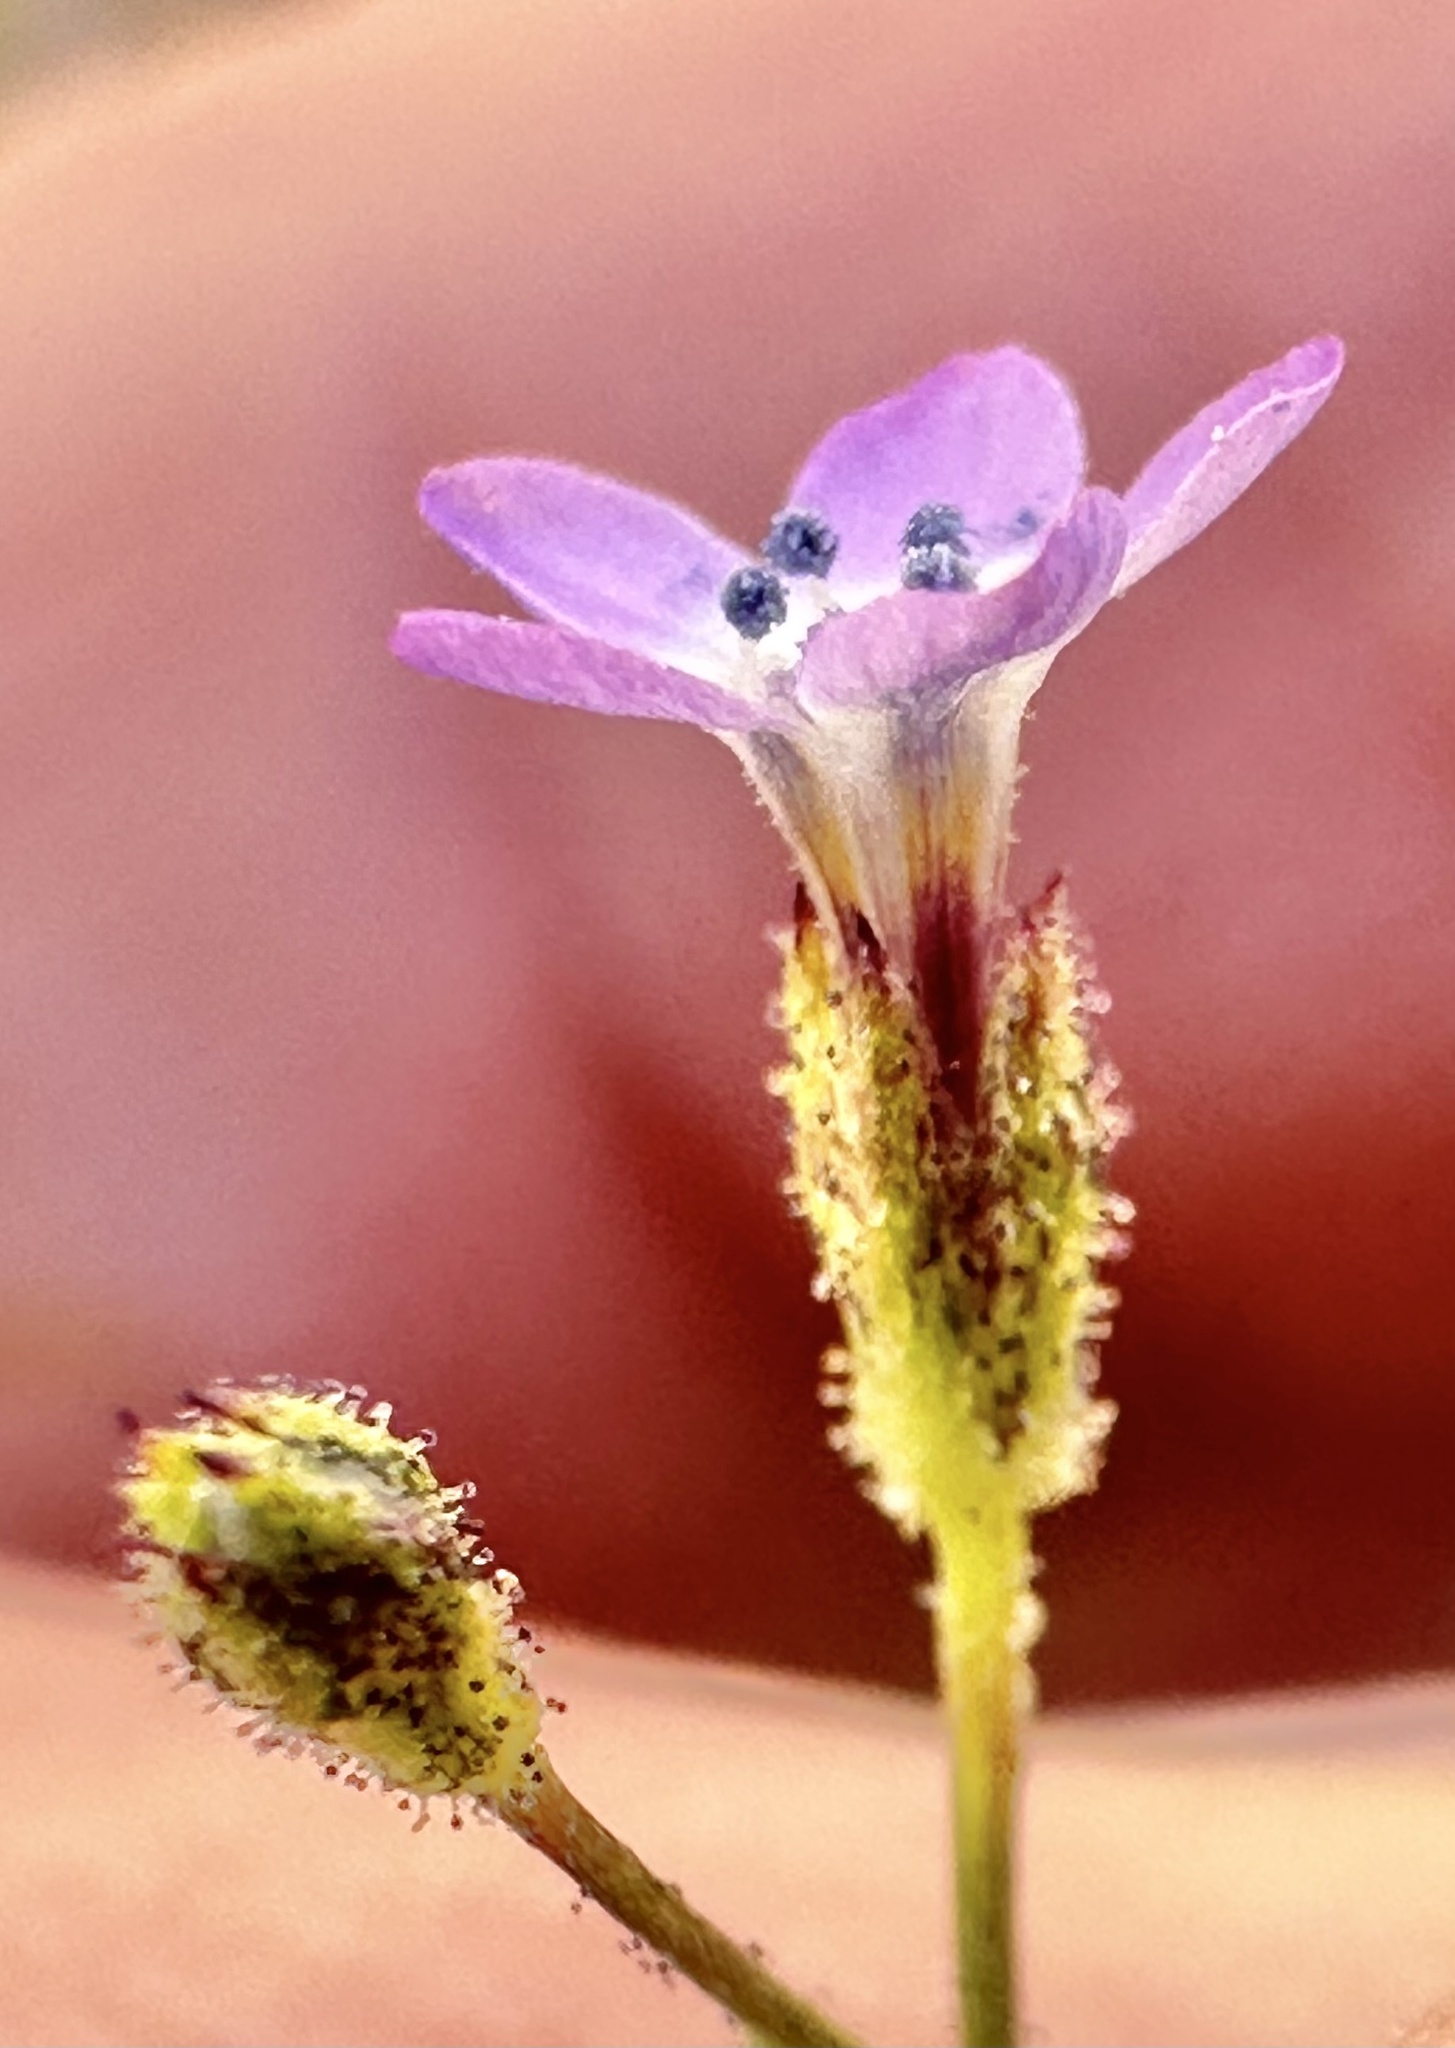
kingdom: Plantae
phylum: Tracheophyta
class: Magnoliopsida
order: Ericales
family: Polemoniaceae
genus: Gilia
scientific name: Gilia brecciarum
